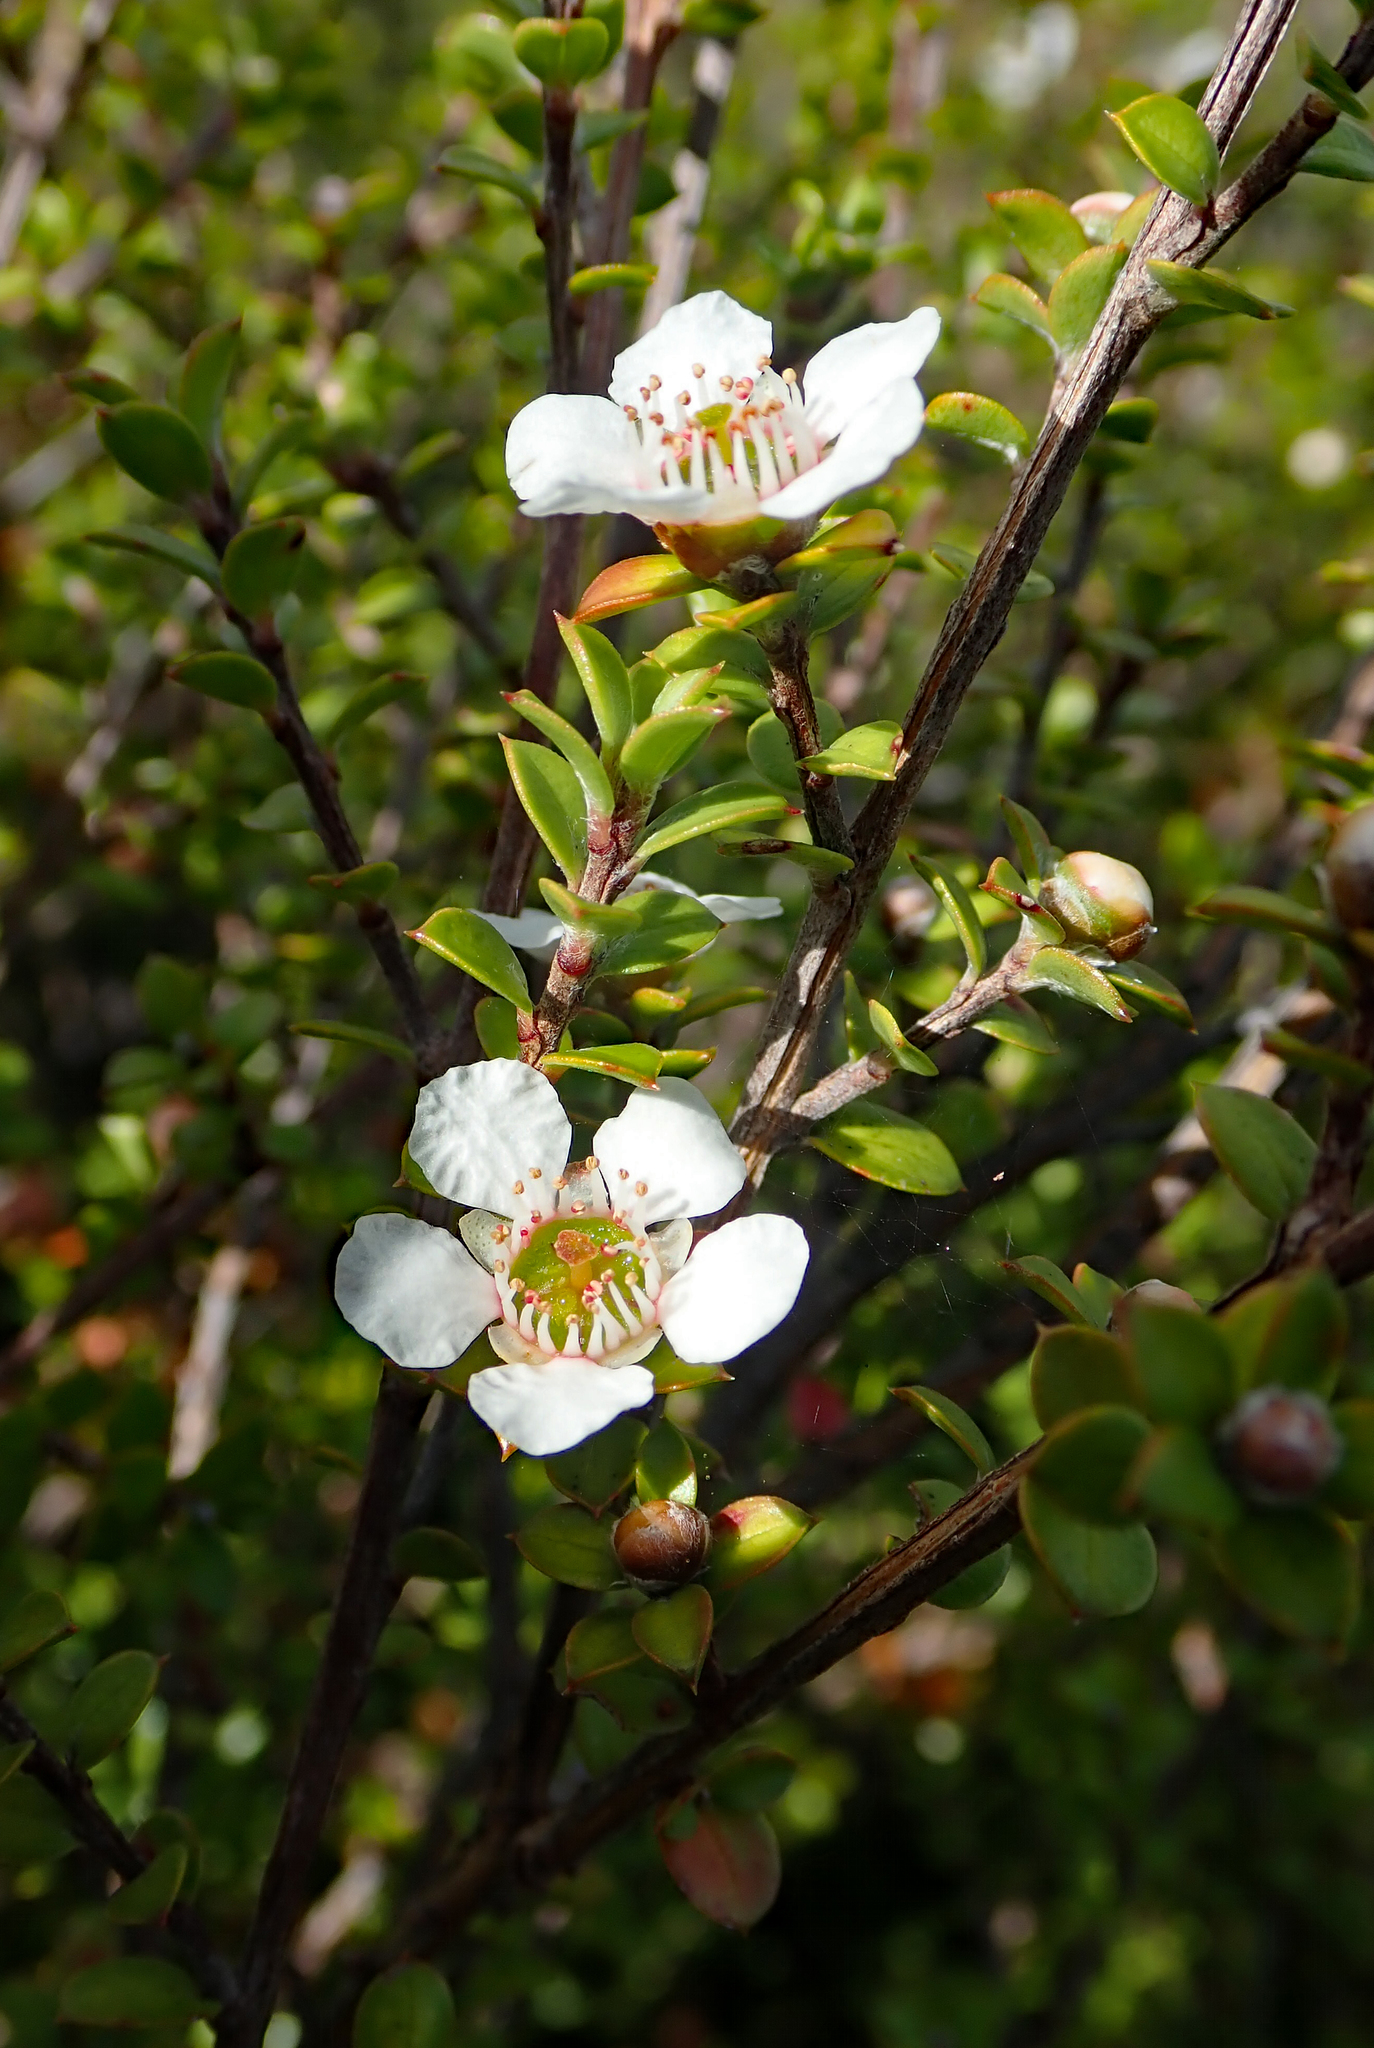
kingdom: Plantae
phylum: Tracheophyta
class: Magnoliopsida
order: Myrtales
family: Myrtaceae
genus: Leptospermum
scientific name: Leptospermum scoparium
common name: Broom tea-tree
